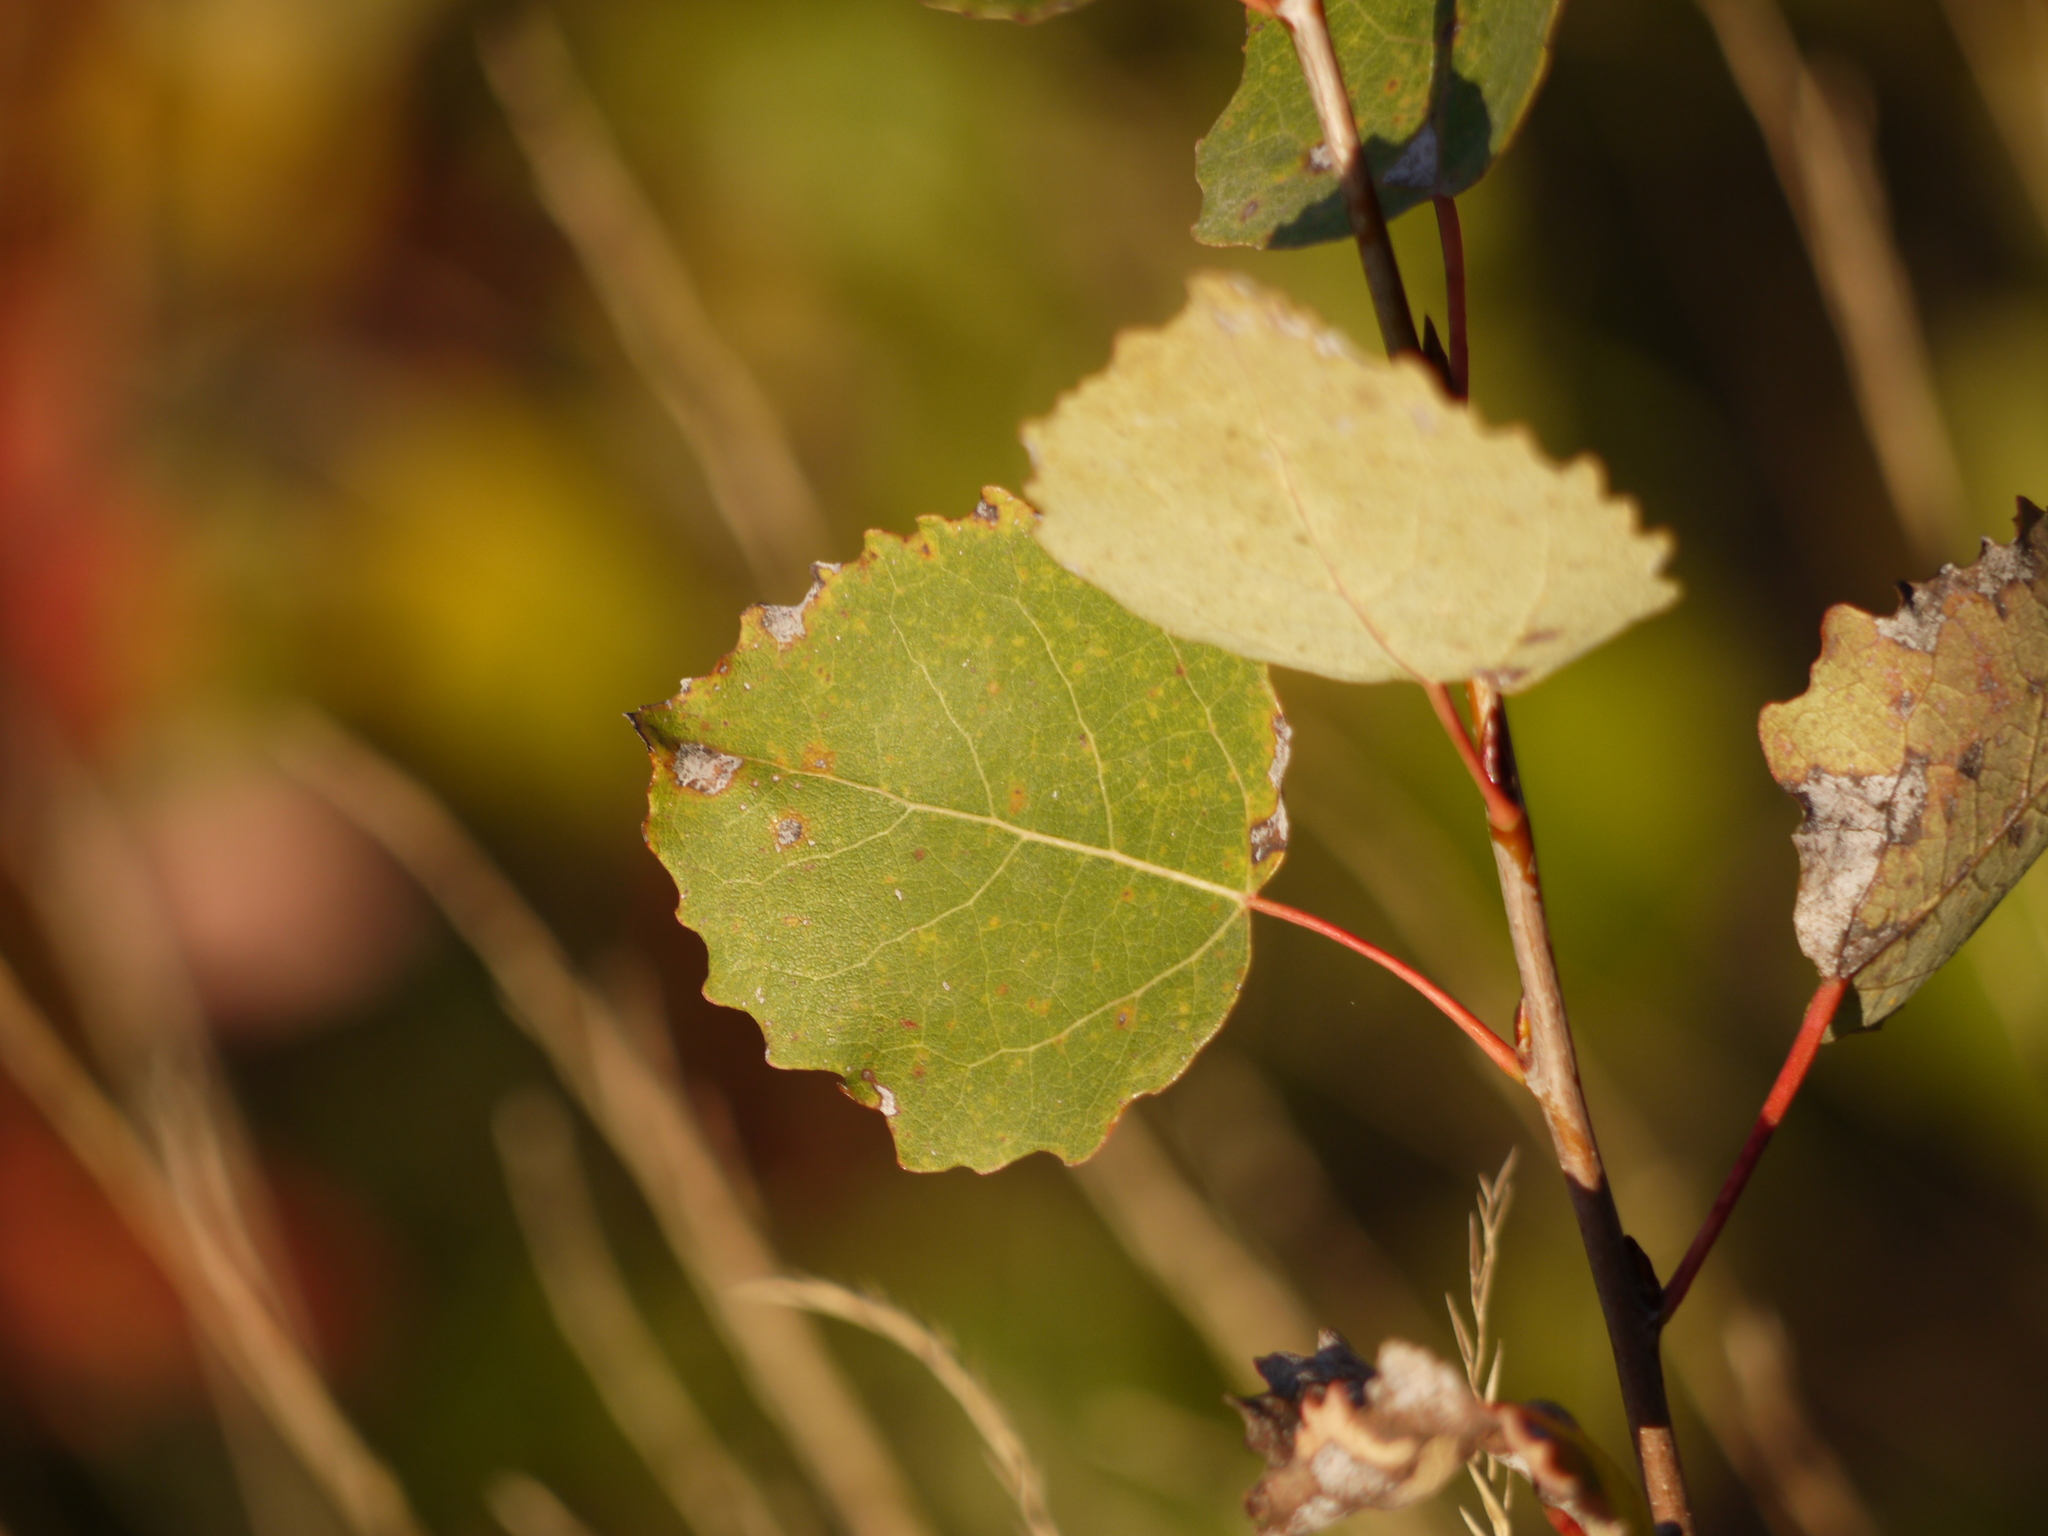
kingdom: Plantae
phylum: Tracheophyta
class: Magnoliopsida
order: Malpighiales
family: Salicaceae
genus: Populus
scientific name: Populus tremula
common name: European aspen
